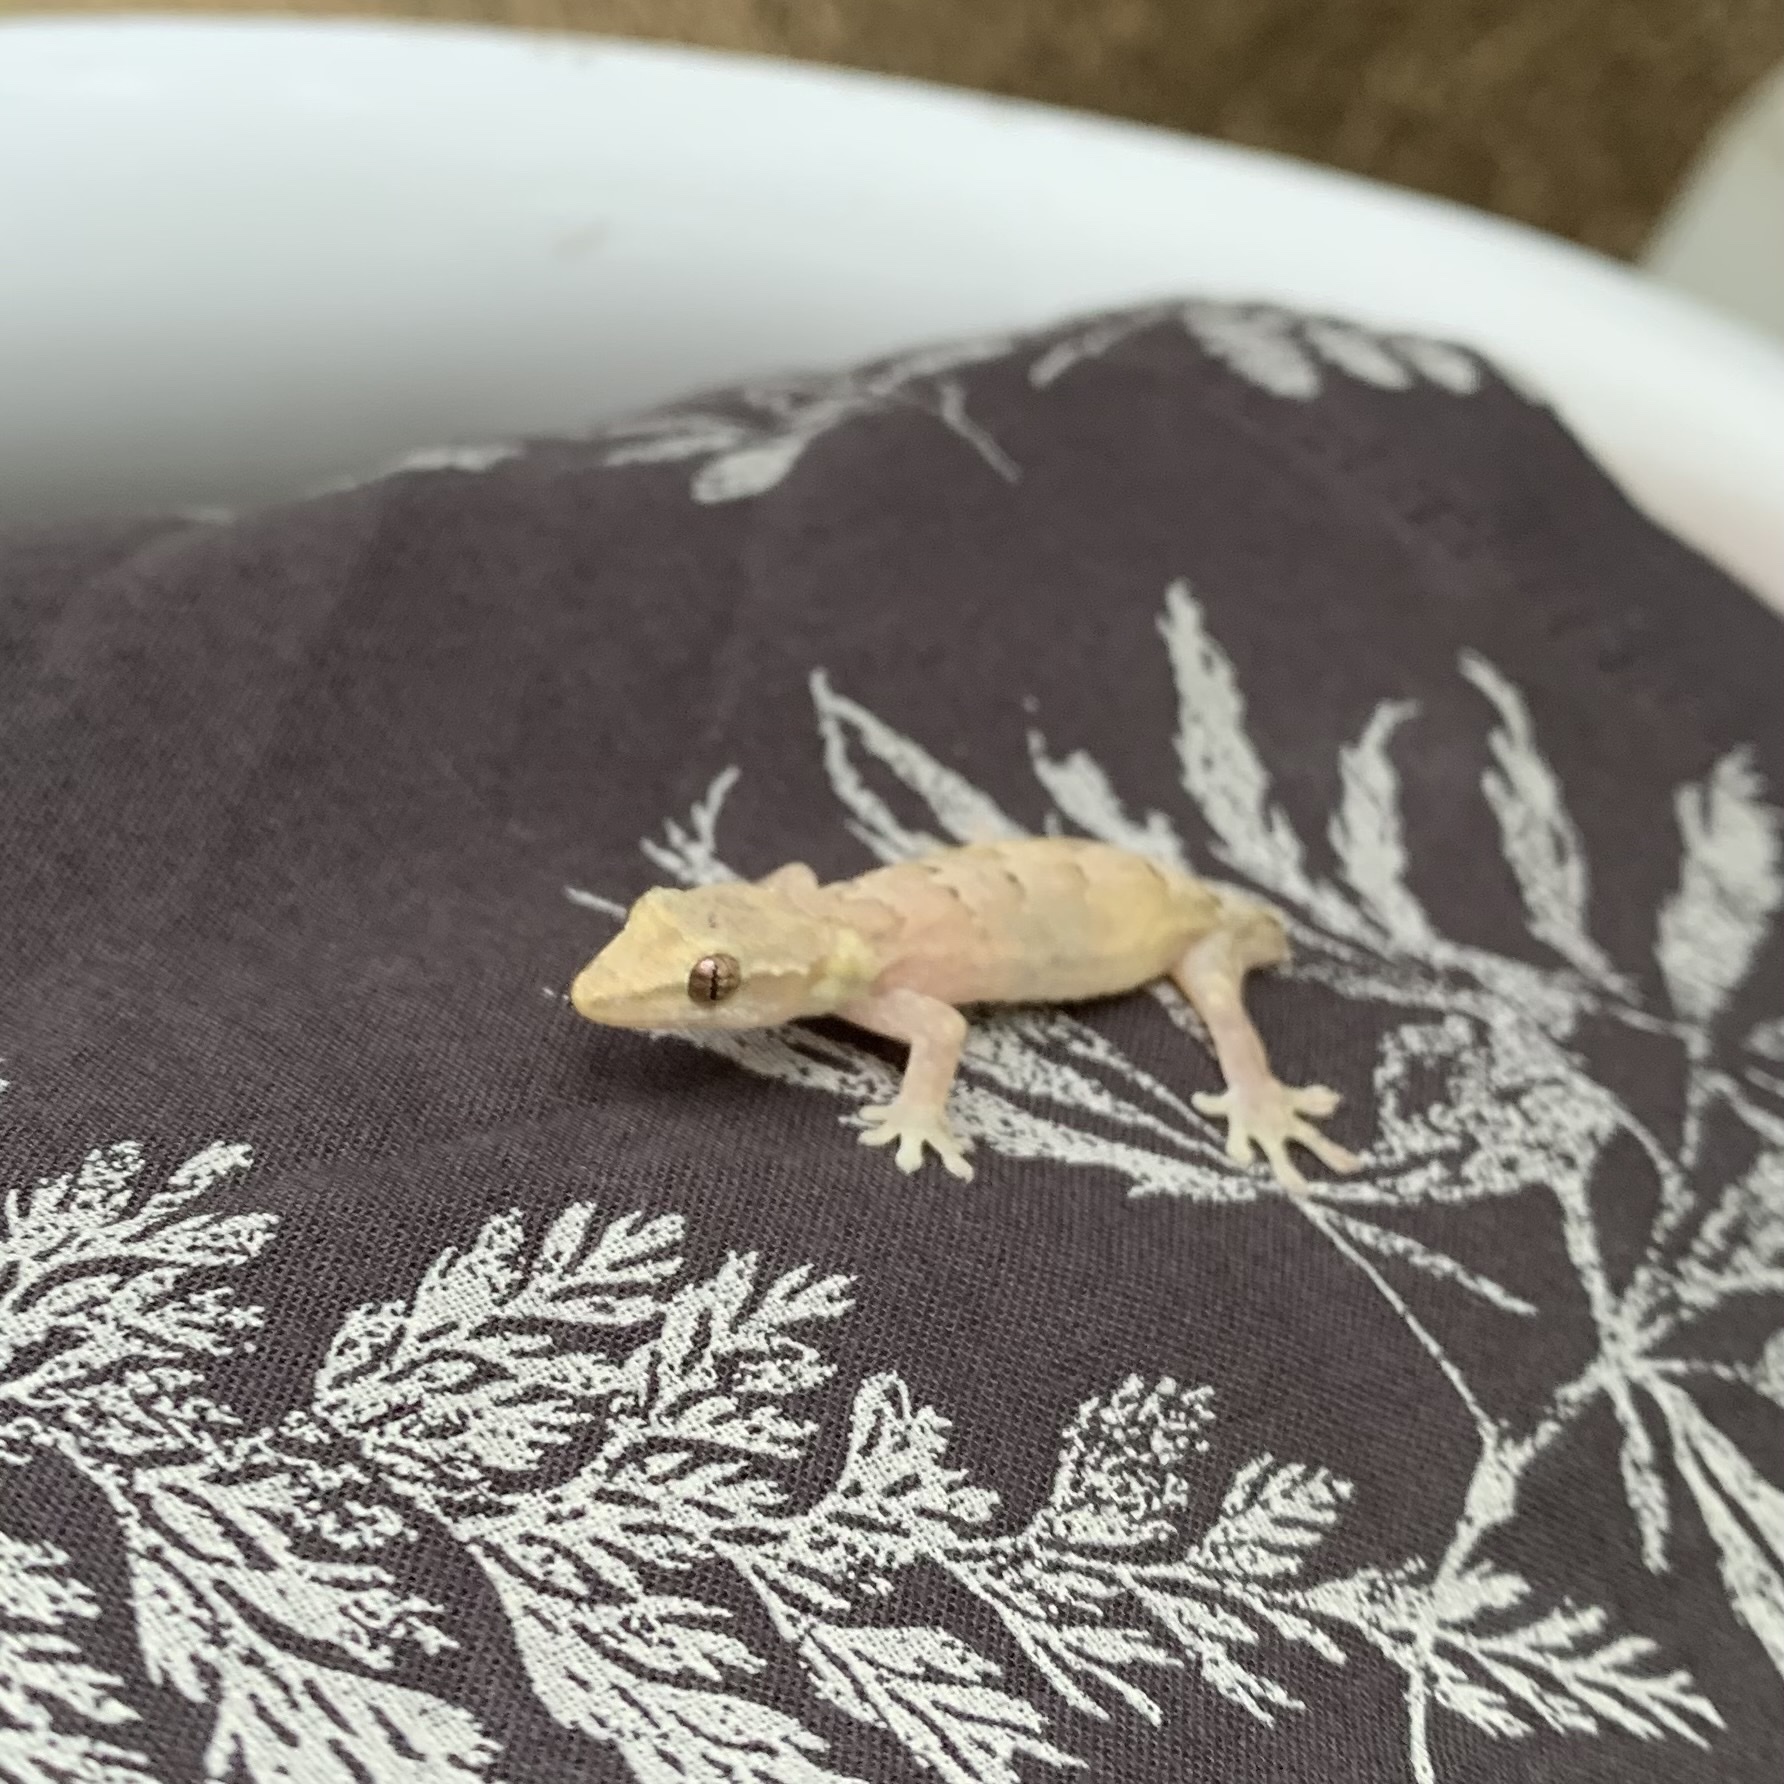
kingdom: Animalia
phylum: Chordata
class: Squamata
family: Gekkonidae
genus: Lepidodactylus
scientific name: Lepidodactylus lugubris
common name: Mourning gecko
